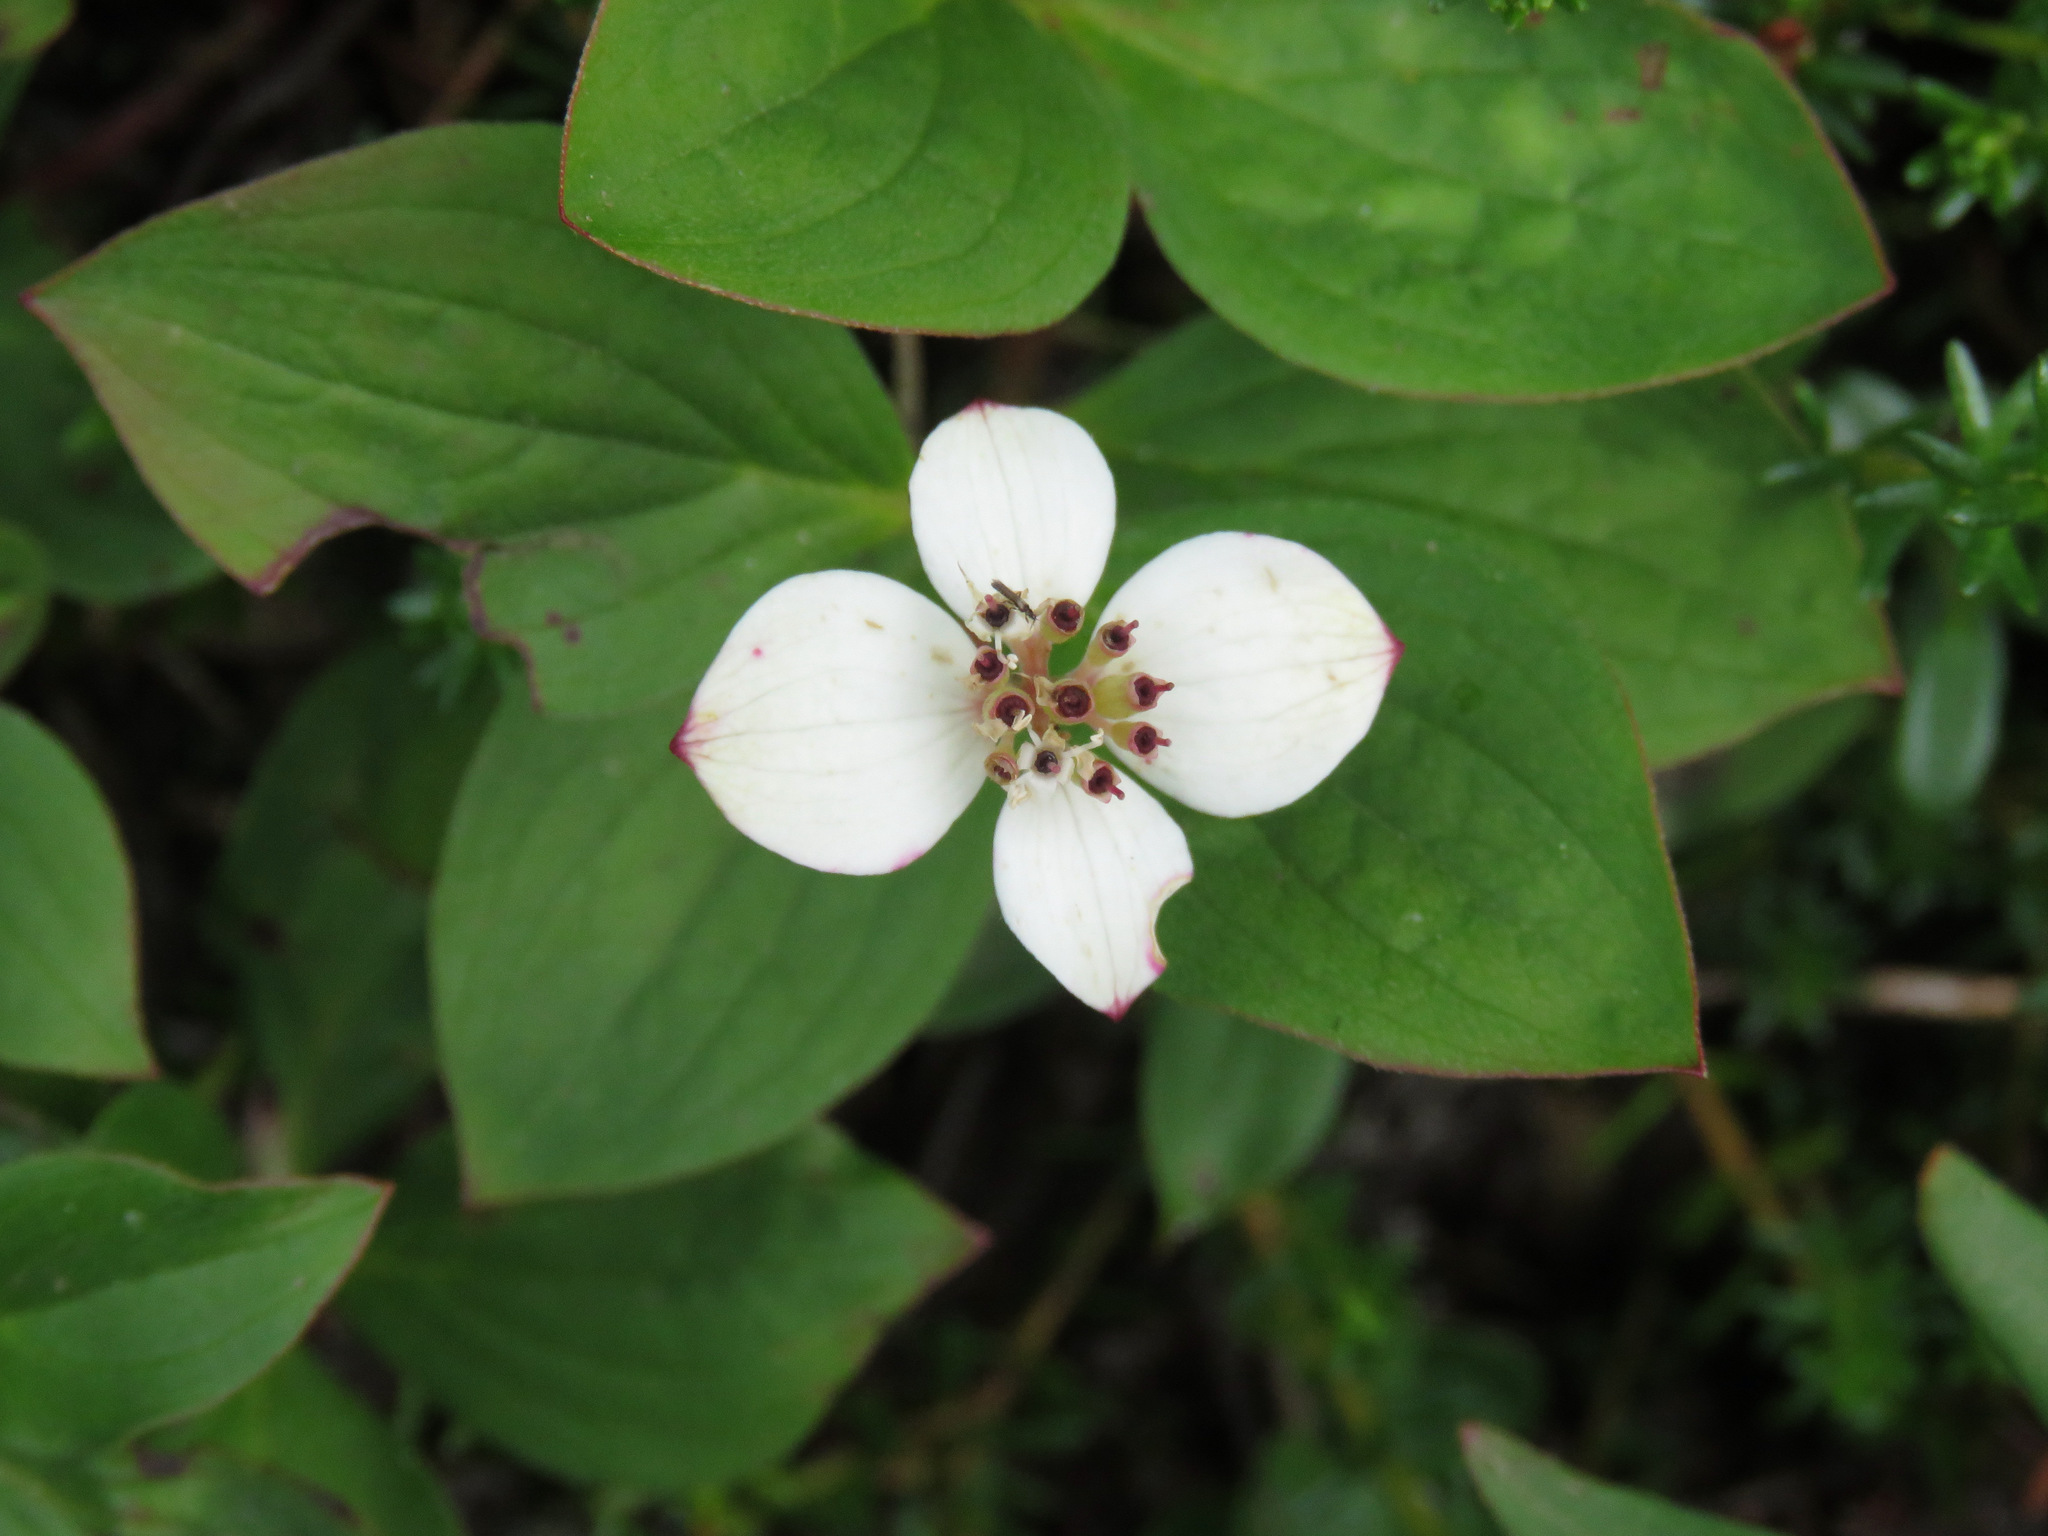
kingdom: Plantae
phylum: Tracheophyta
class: Magnoliopsida
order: Cornales
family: Cornaceae
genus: Cornus
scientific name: Cornus canadensis
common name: Creeping dogwood
